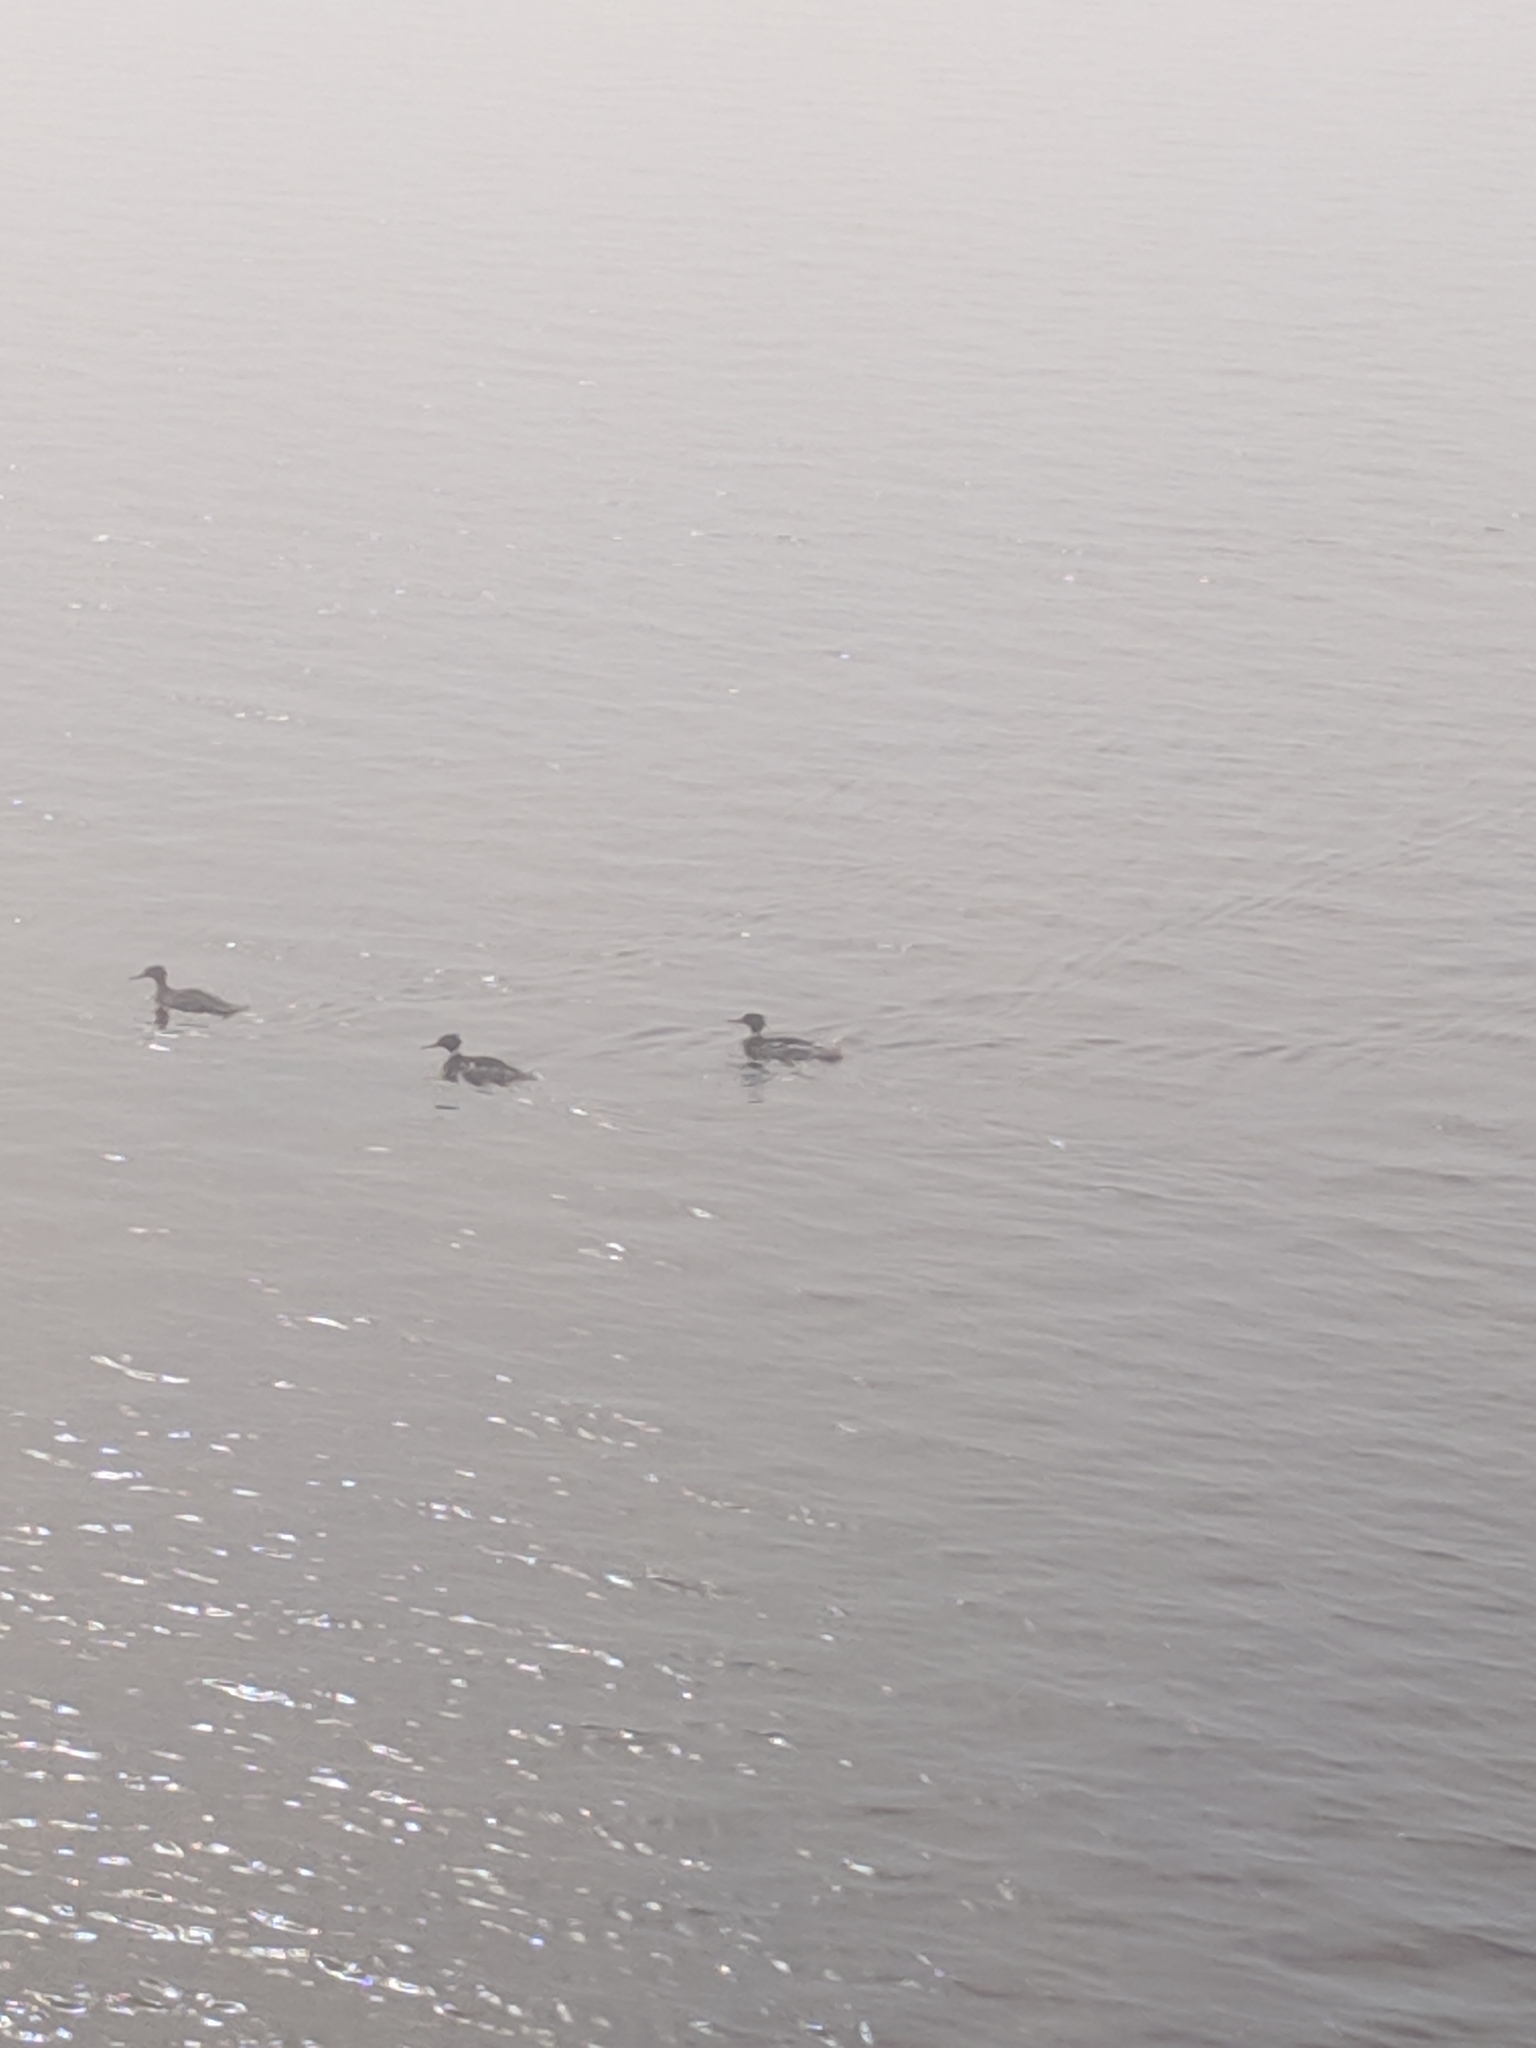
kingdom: Animalia
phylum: Chordata
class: Aves
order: Anseriformes
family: Anatidae
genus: Mergus
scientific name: Mergus serrator
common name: Red-breasted merganser
